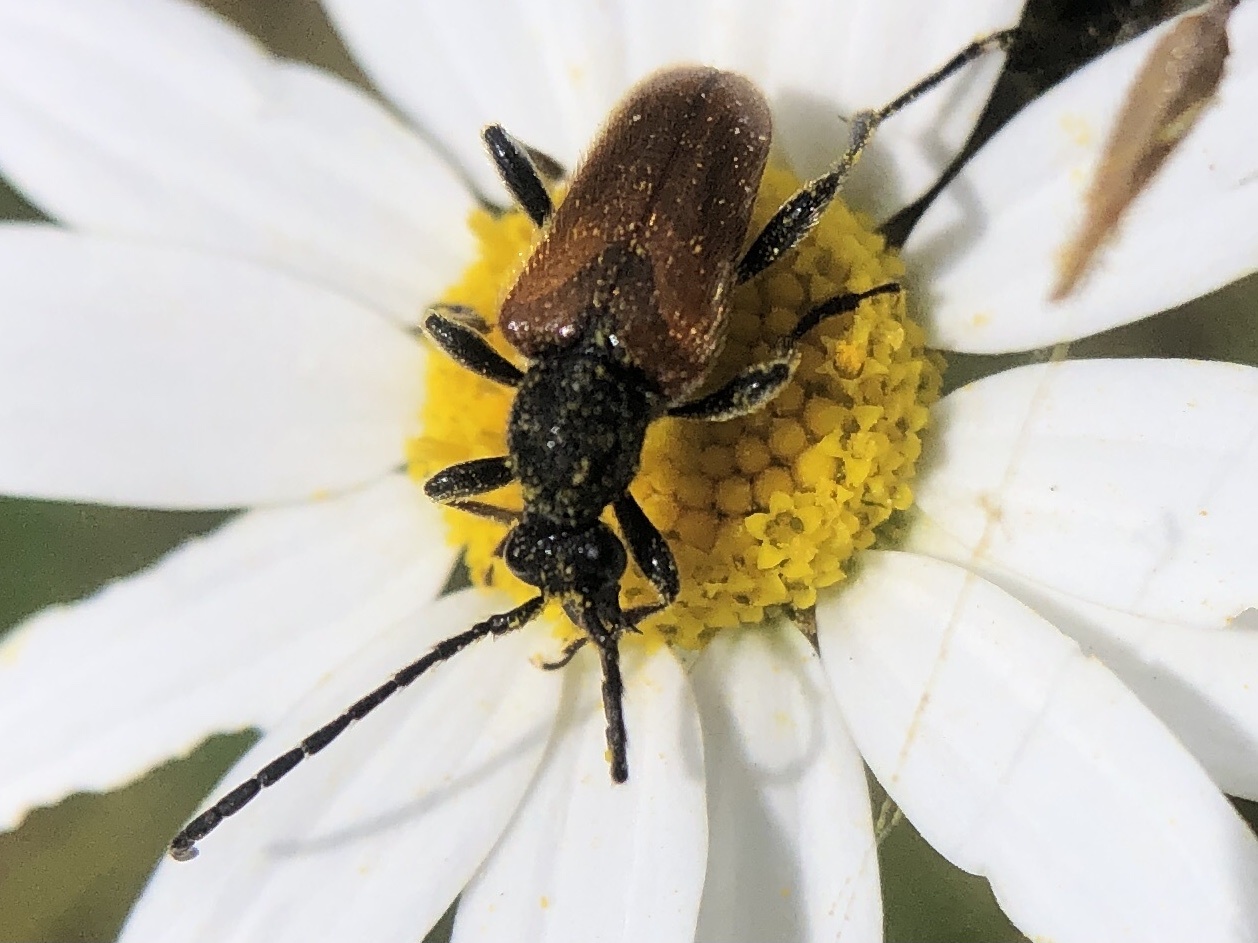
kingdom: Animalia
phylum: Arthropoda
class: Insecta
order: Coleoptera
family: Cerambycidae
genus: Pseudovadonia
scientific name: Pseudovadonia livida
